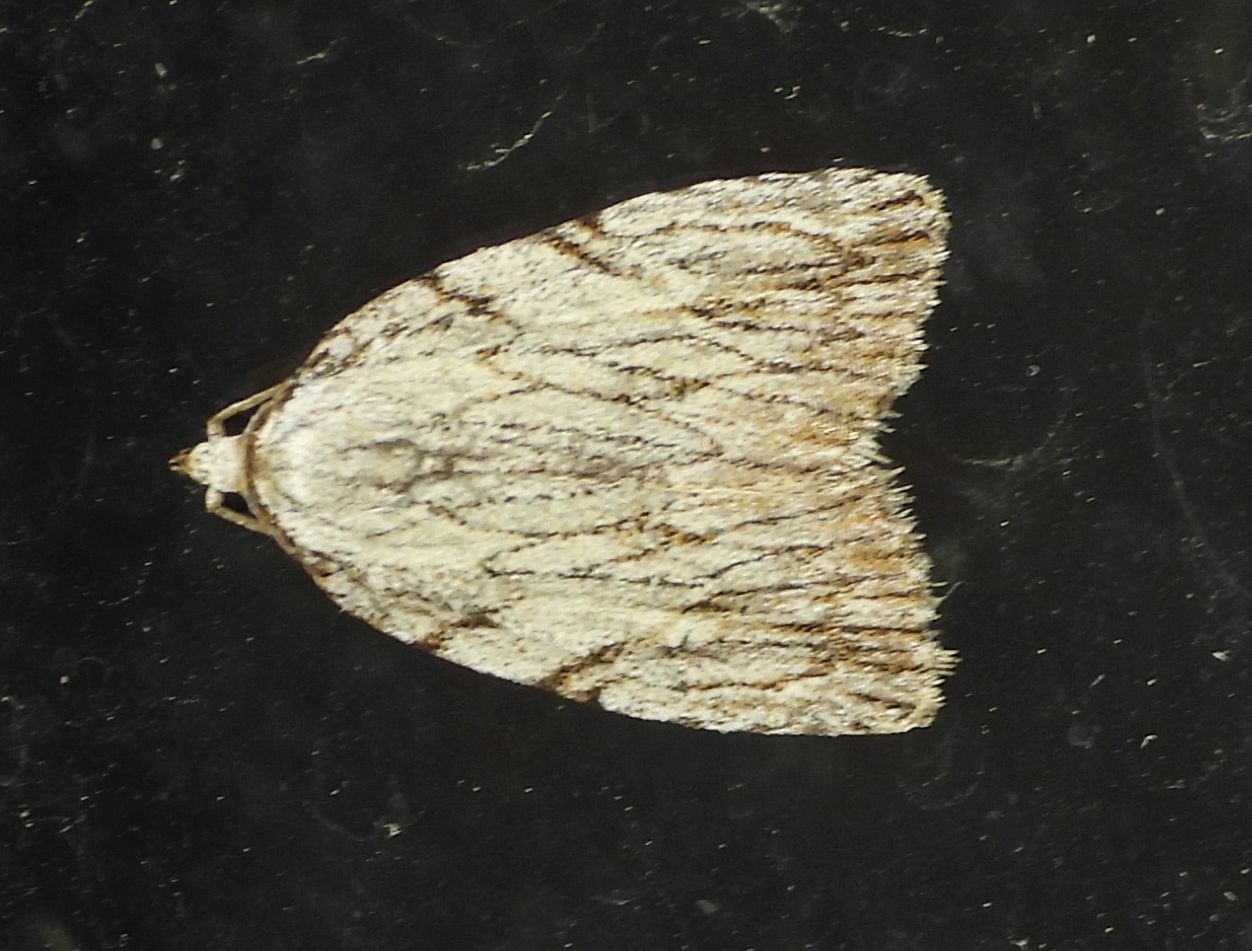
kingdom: Animalia
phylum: Arthropoda
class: Insecta
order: Lepidoptera
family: Noctuidae
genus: Balsa
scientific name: Balsa tristrigella
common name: Three-lined balsa moth
